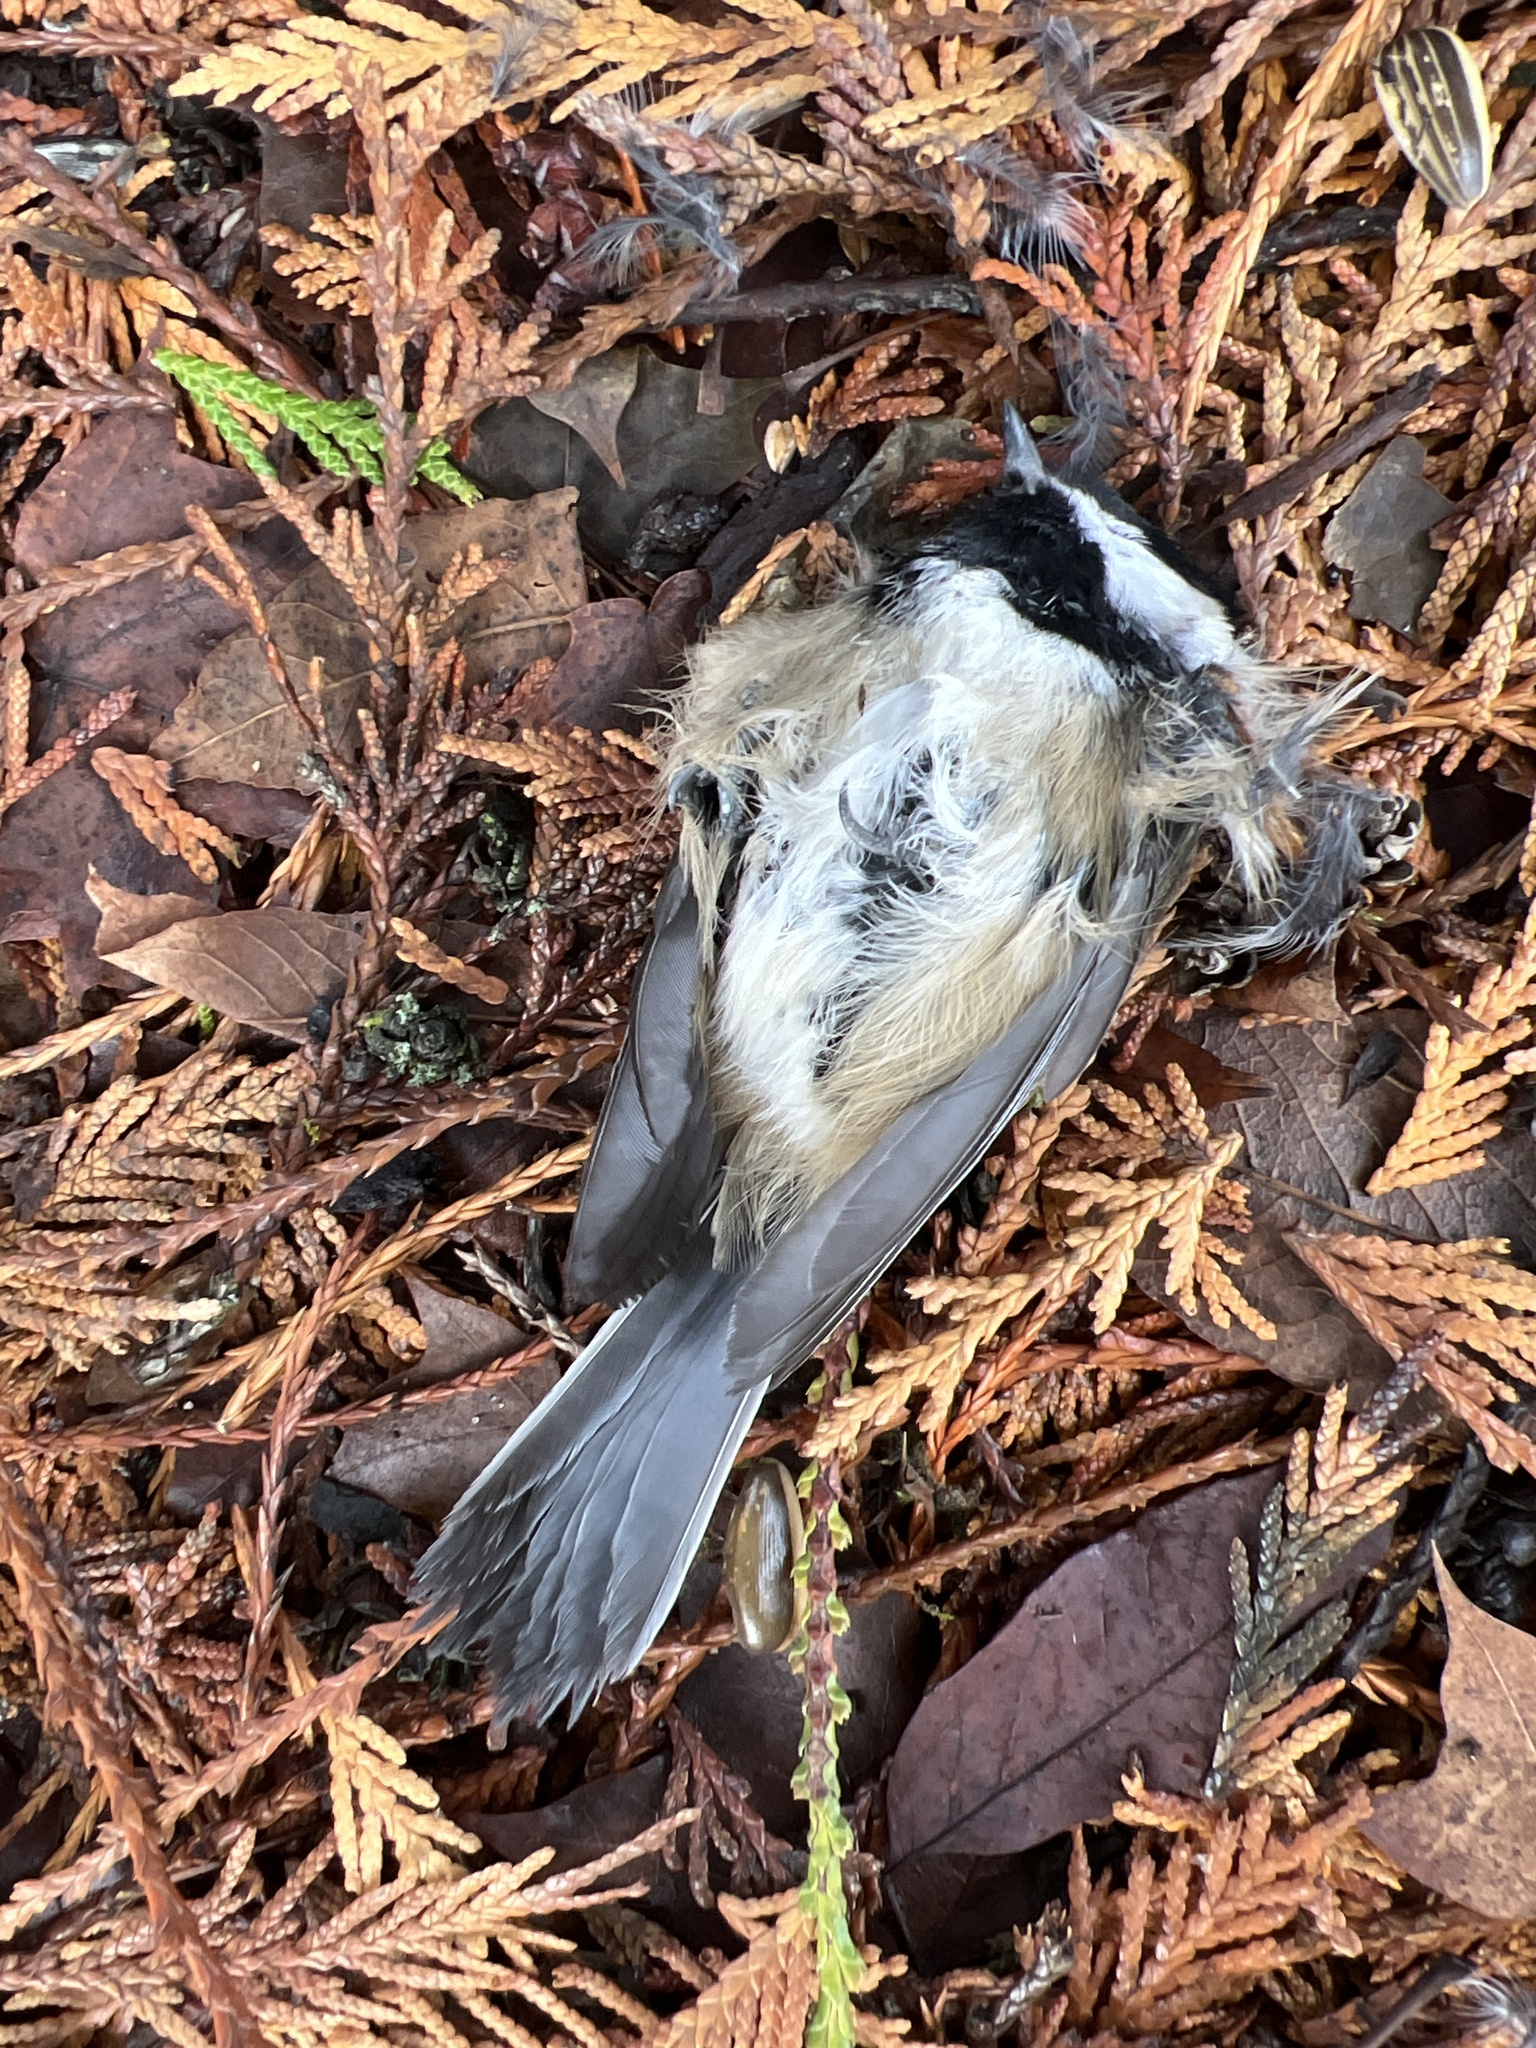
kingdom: Animalia
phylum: Chordata
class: Aves
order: Passeriformes
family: Paridae
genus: Poecile
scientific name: Poecile atricapillus
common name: Black-capped chickadee
